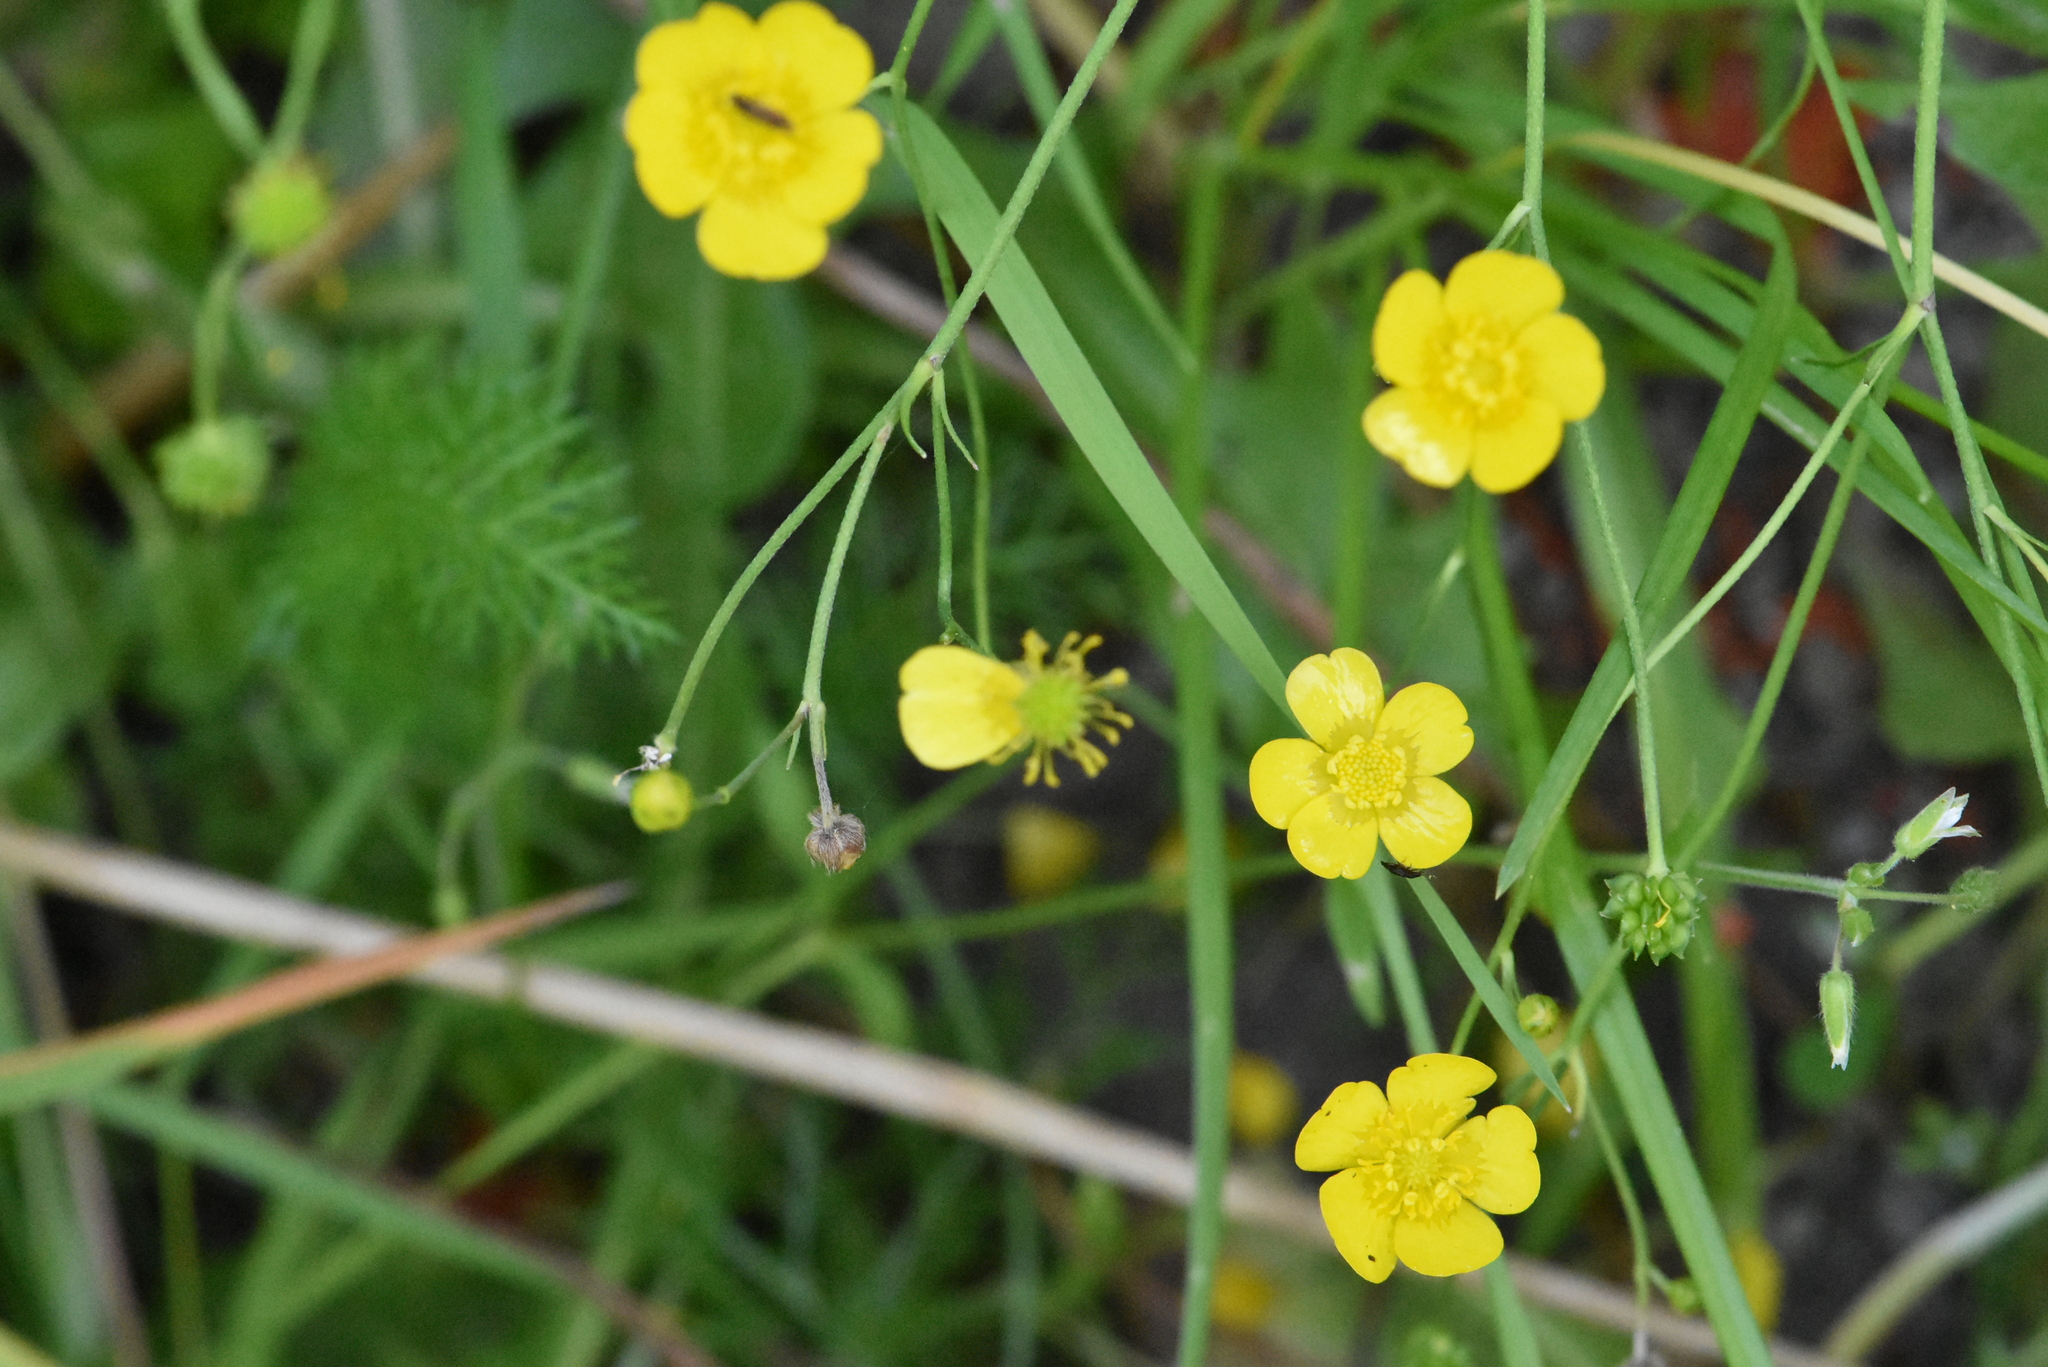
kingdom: Plantae
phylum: Tracheophyta
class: Magnoliopsida
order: Ranunculales
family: Ranunculaceae
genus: Ranunculus
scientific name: Ranunculus acris
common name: Meadow buttercup
